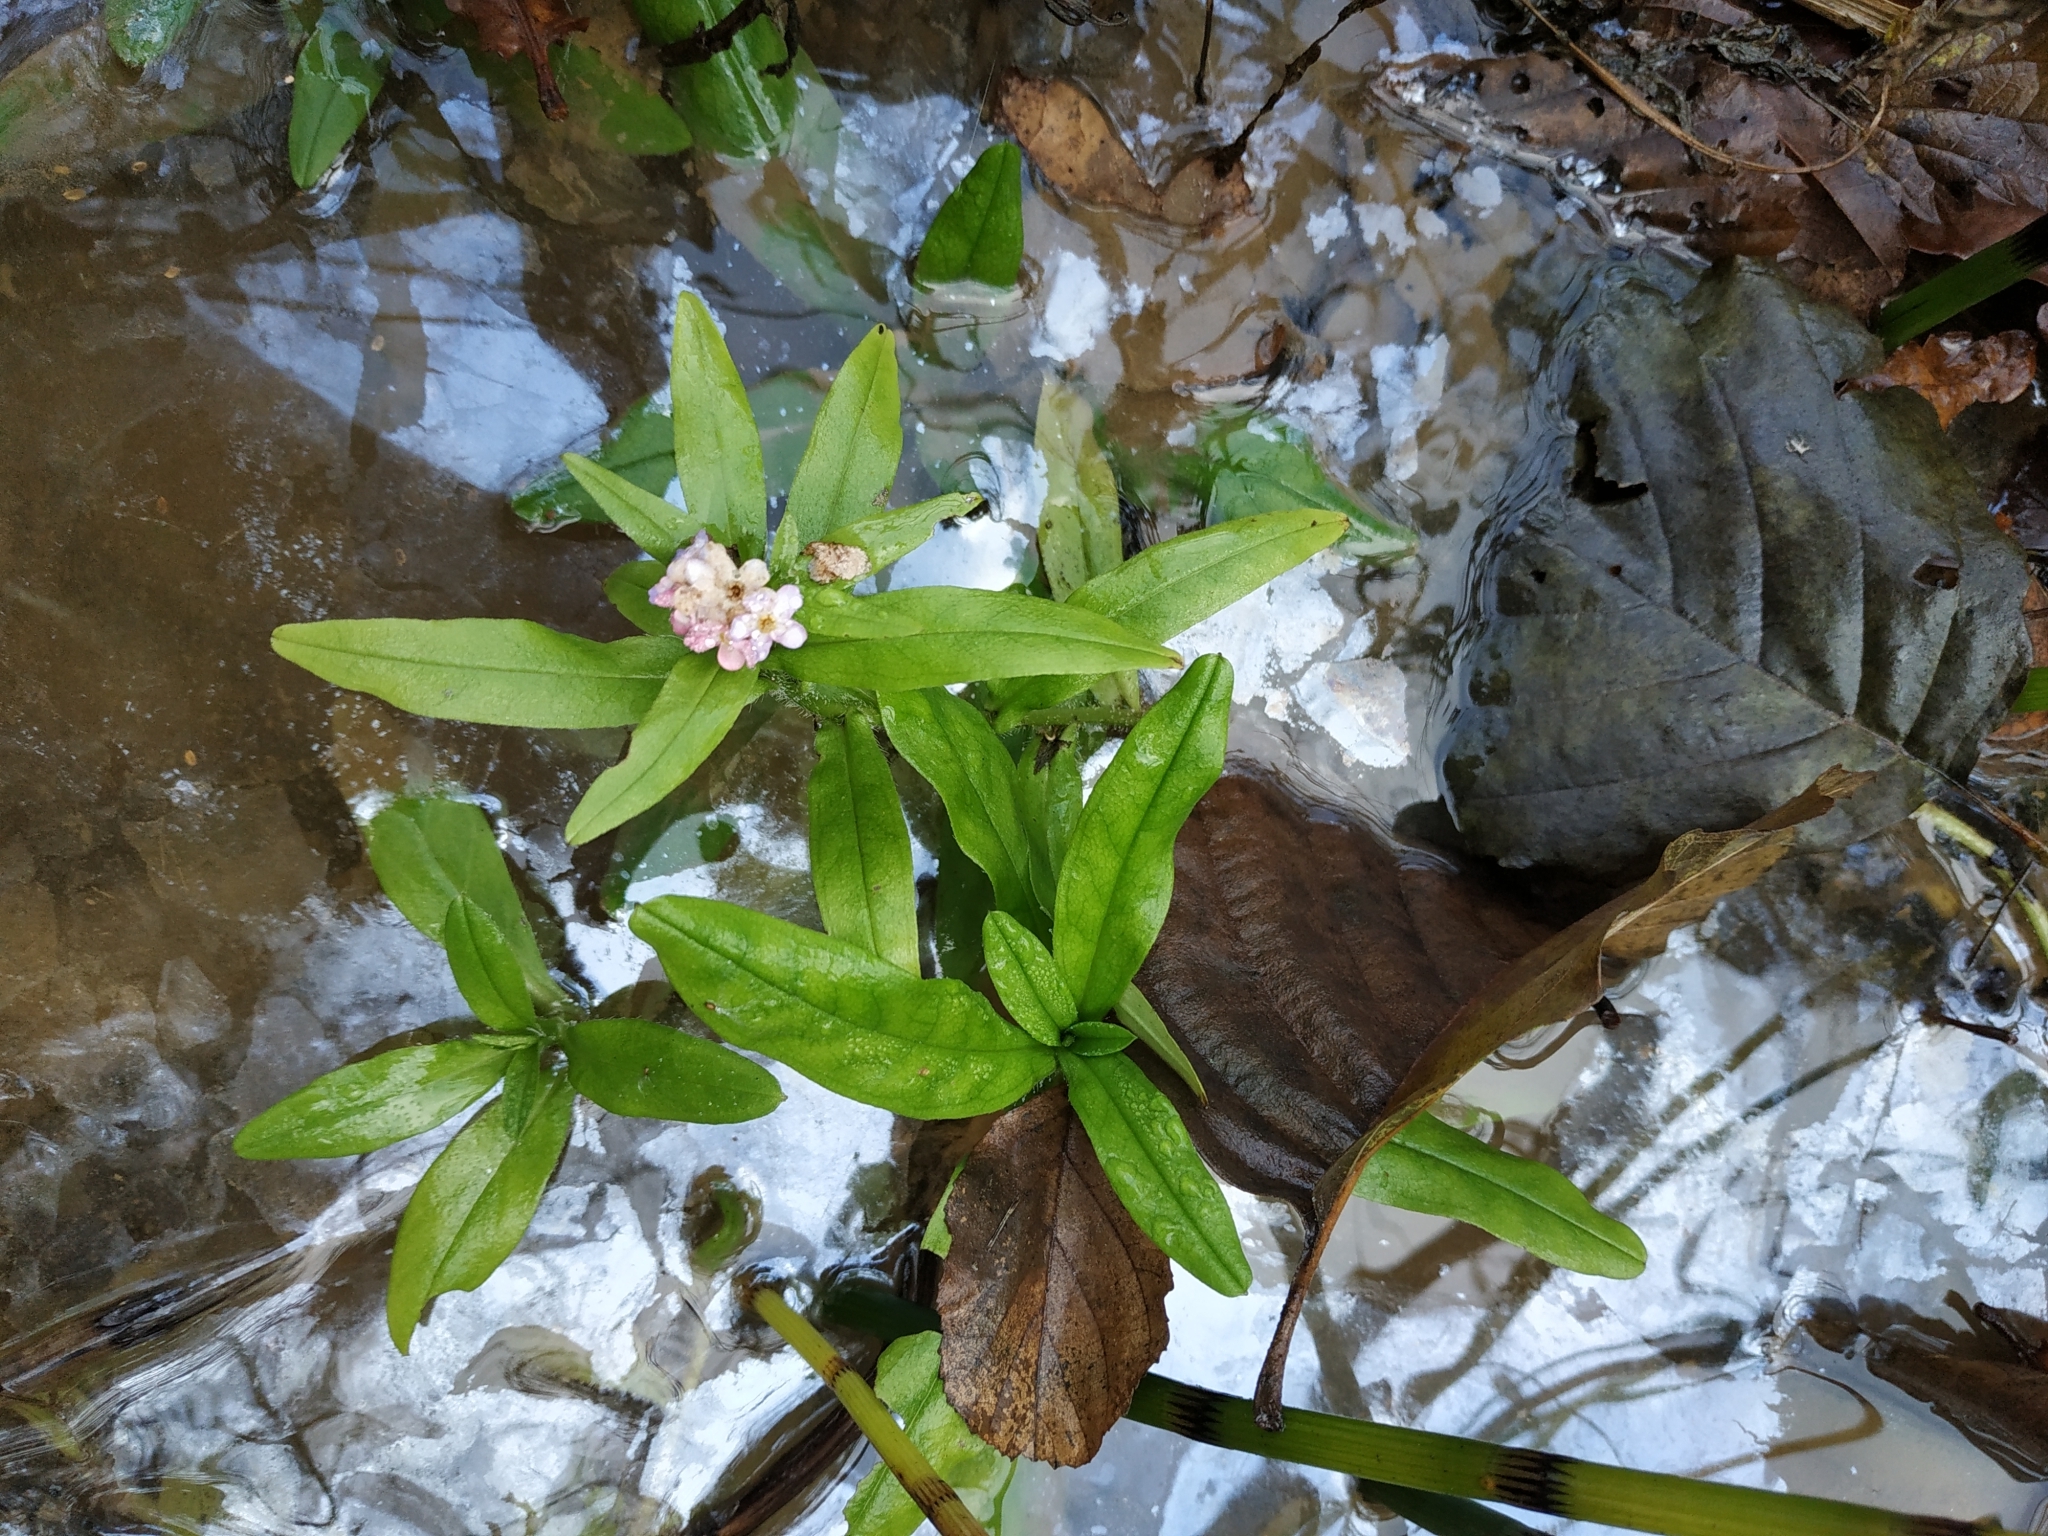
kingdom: Plantae
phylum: Tracheophyta
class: Magnoliopsida
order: Boraginales
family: Boraginaceae
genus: Myosotis
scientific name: Myosotis scorpioides
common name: Water forget-me-not
